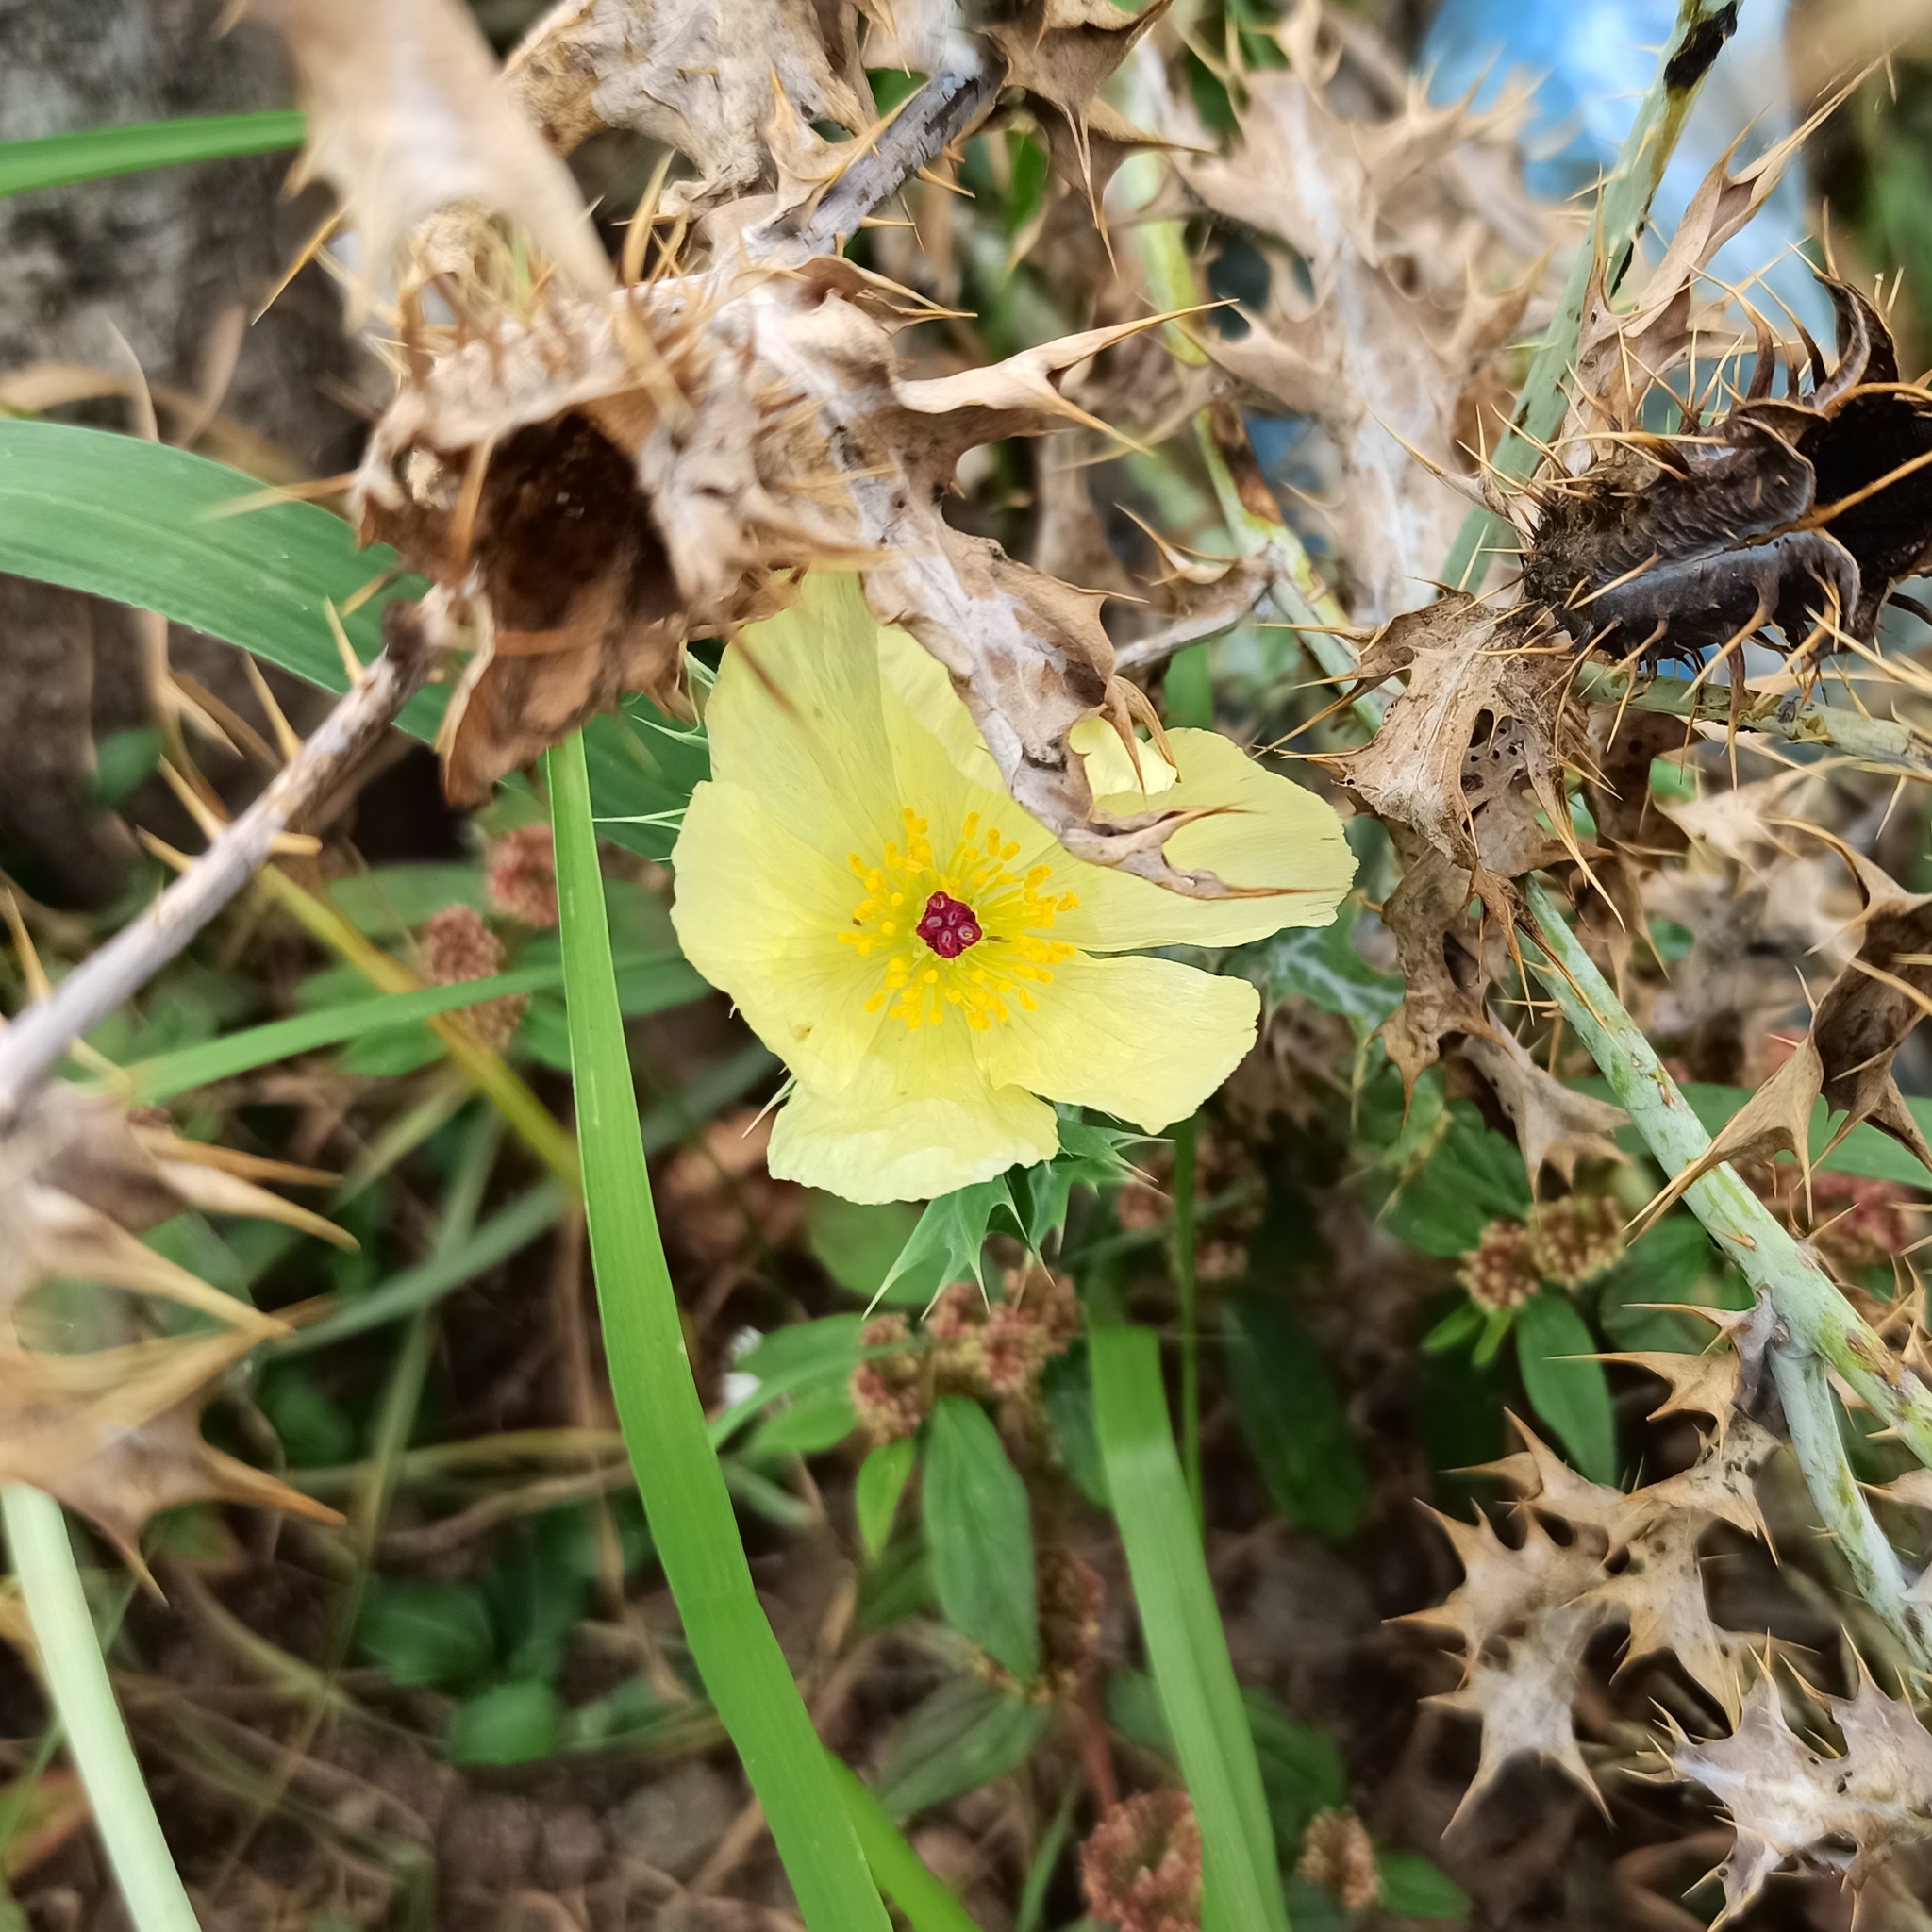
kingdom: Plantae
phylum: Tracheophyta
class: Magnoliopsida
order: Ranunculales
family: Papaveraceae
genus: Argemone
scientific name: Argemone ochroleuca
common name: White-flower mexican-poppy
